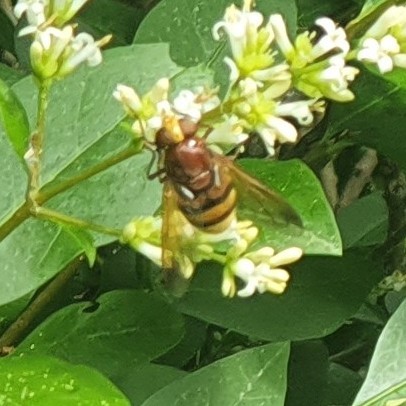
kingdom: Animalia
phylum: Arthropoda
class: Insecta
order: Diptera
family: Syrphidae
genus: Volucella
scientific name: Volucella zonaria
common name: Hornet hoverfly
